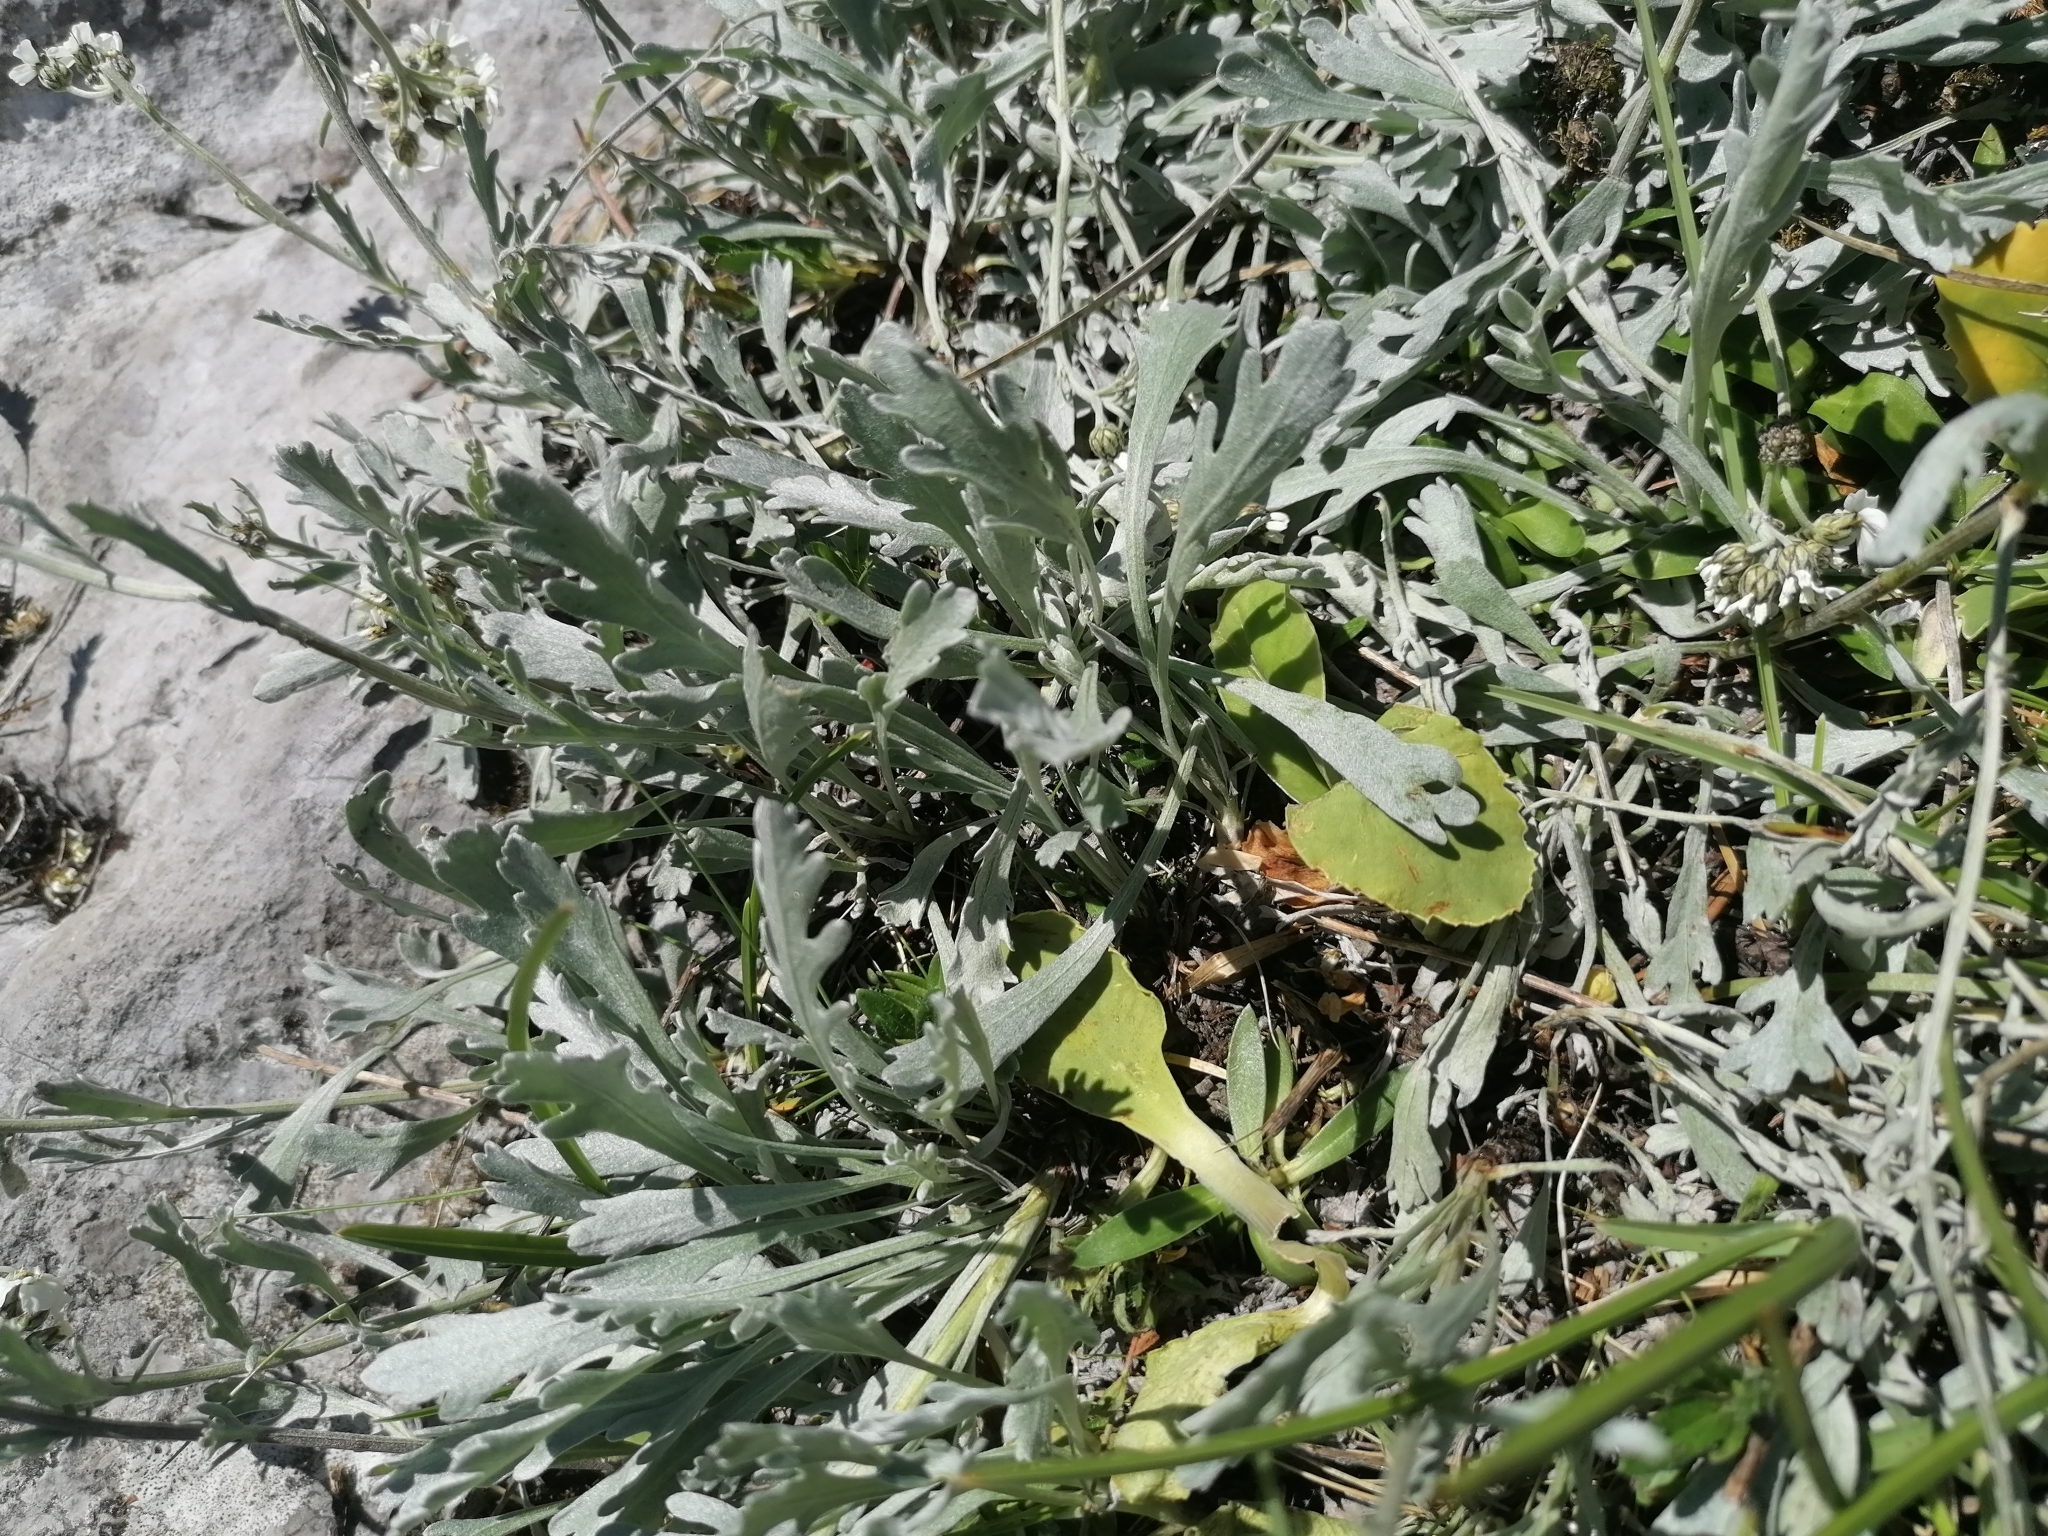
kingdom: Plantae
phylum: Tracheophyta
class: Magnoliopsida
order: Asterales
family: Asteraceae
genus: Achillea
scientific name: Achillea clavennae
